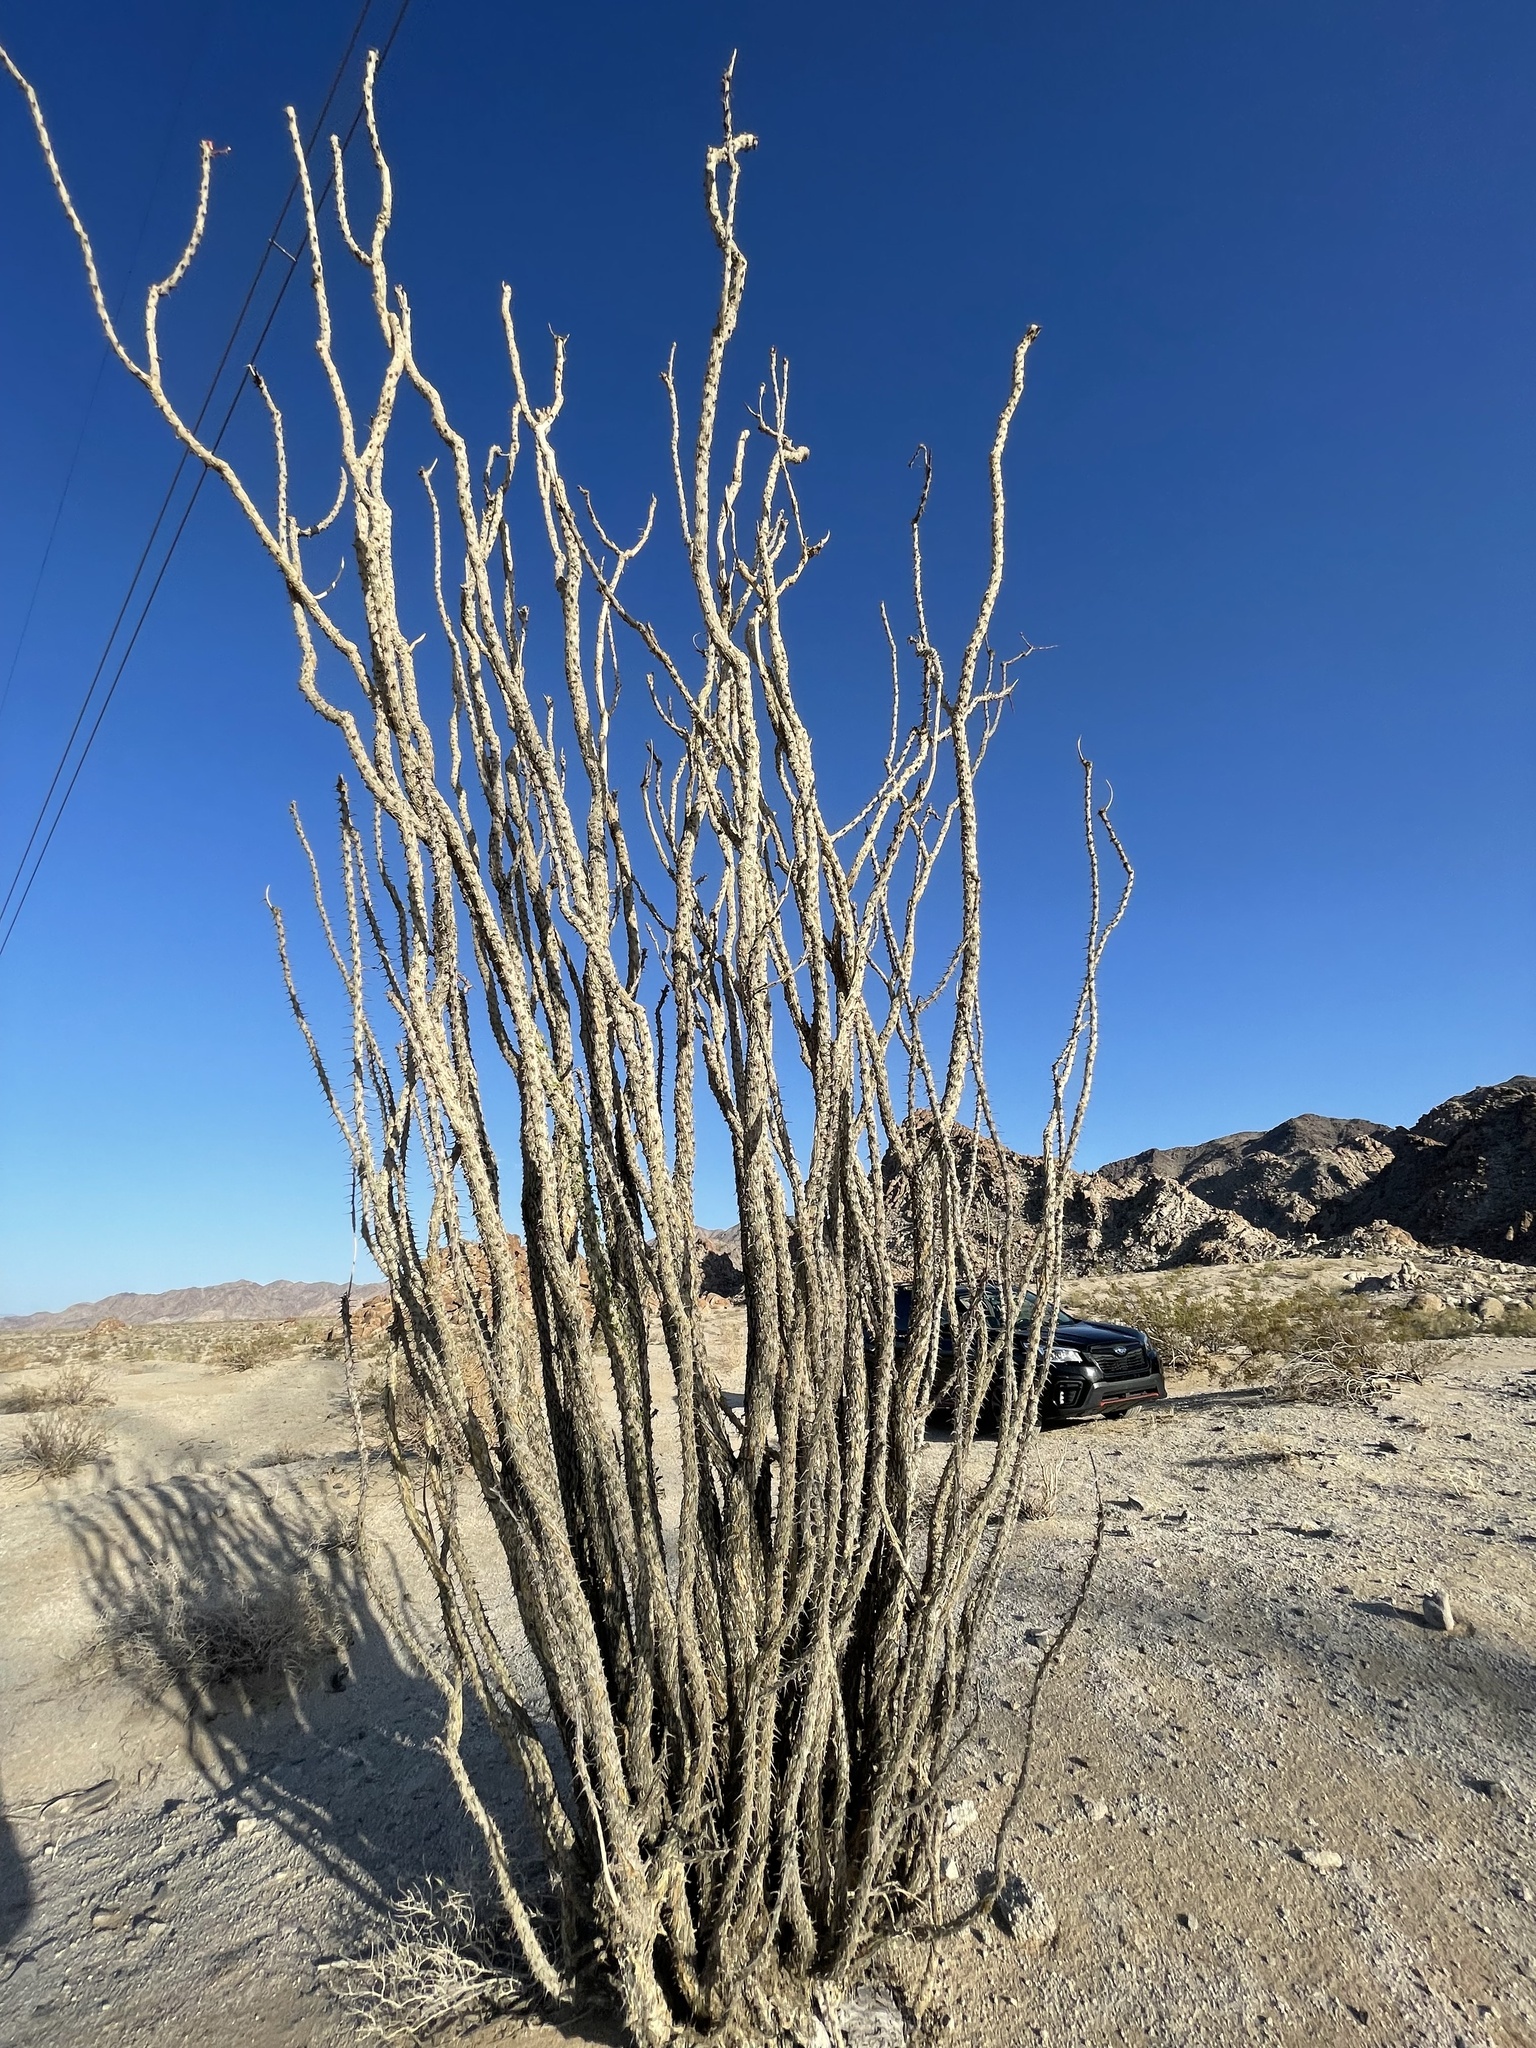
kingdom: Plantae
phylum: Tracheophyta
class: Magnoliopsida
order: Ericales
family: Fouquieriaceae
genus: Fouquieria
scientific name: Fouquieria splendens
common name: Vine-cactus
